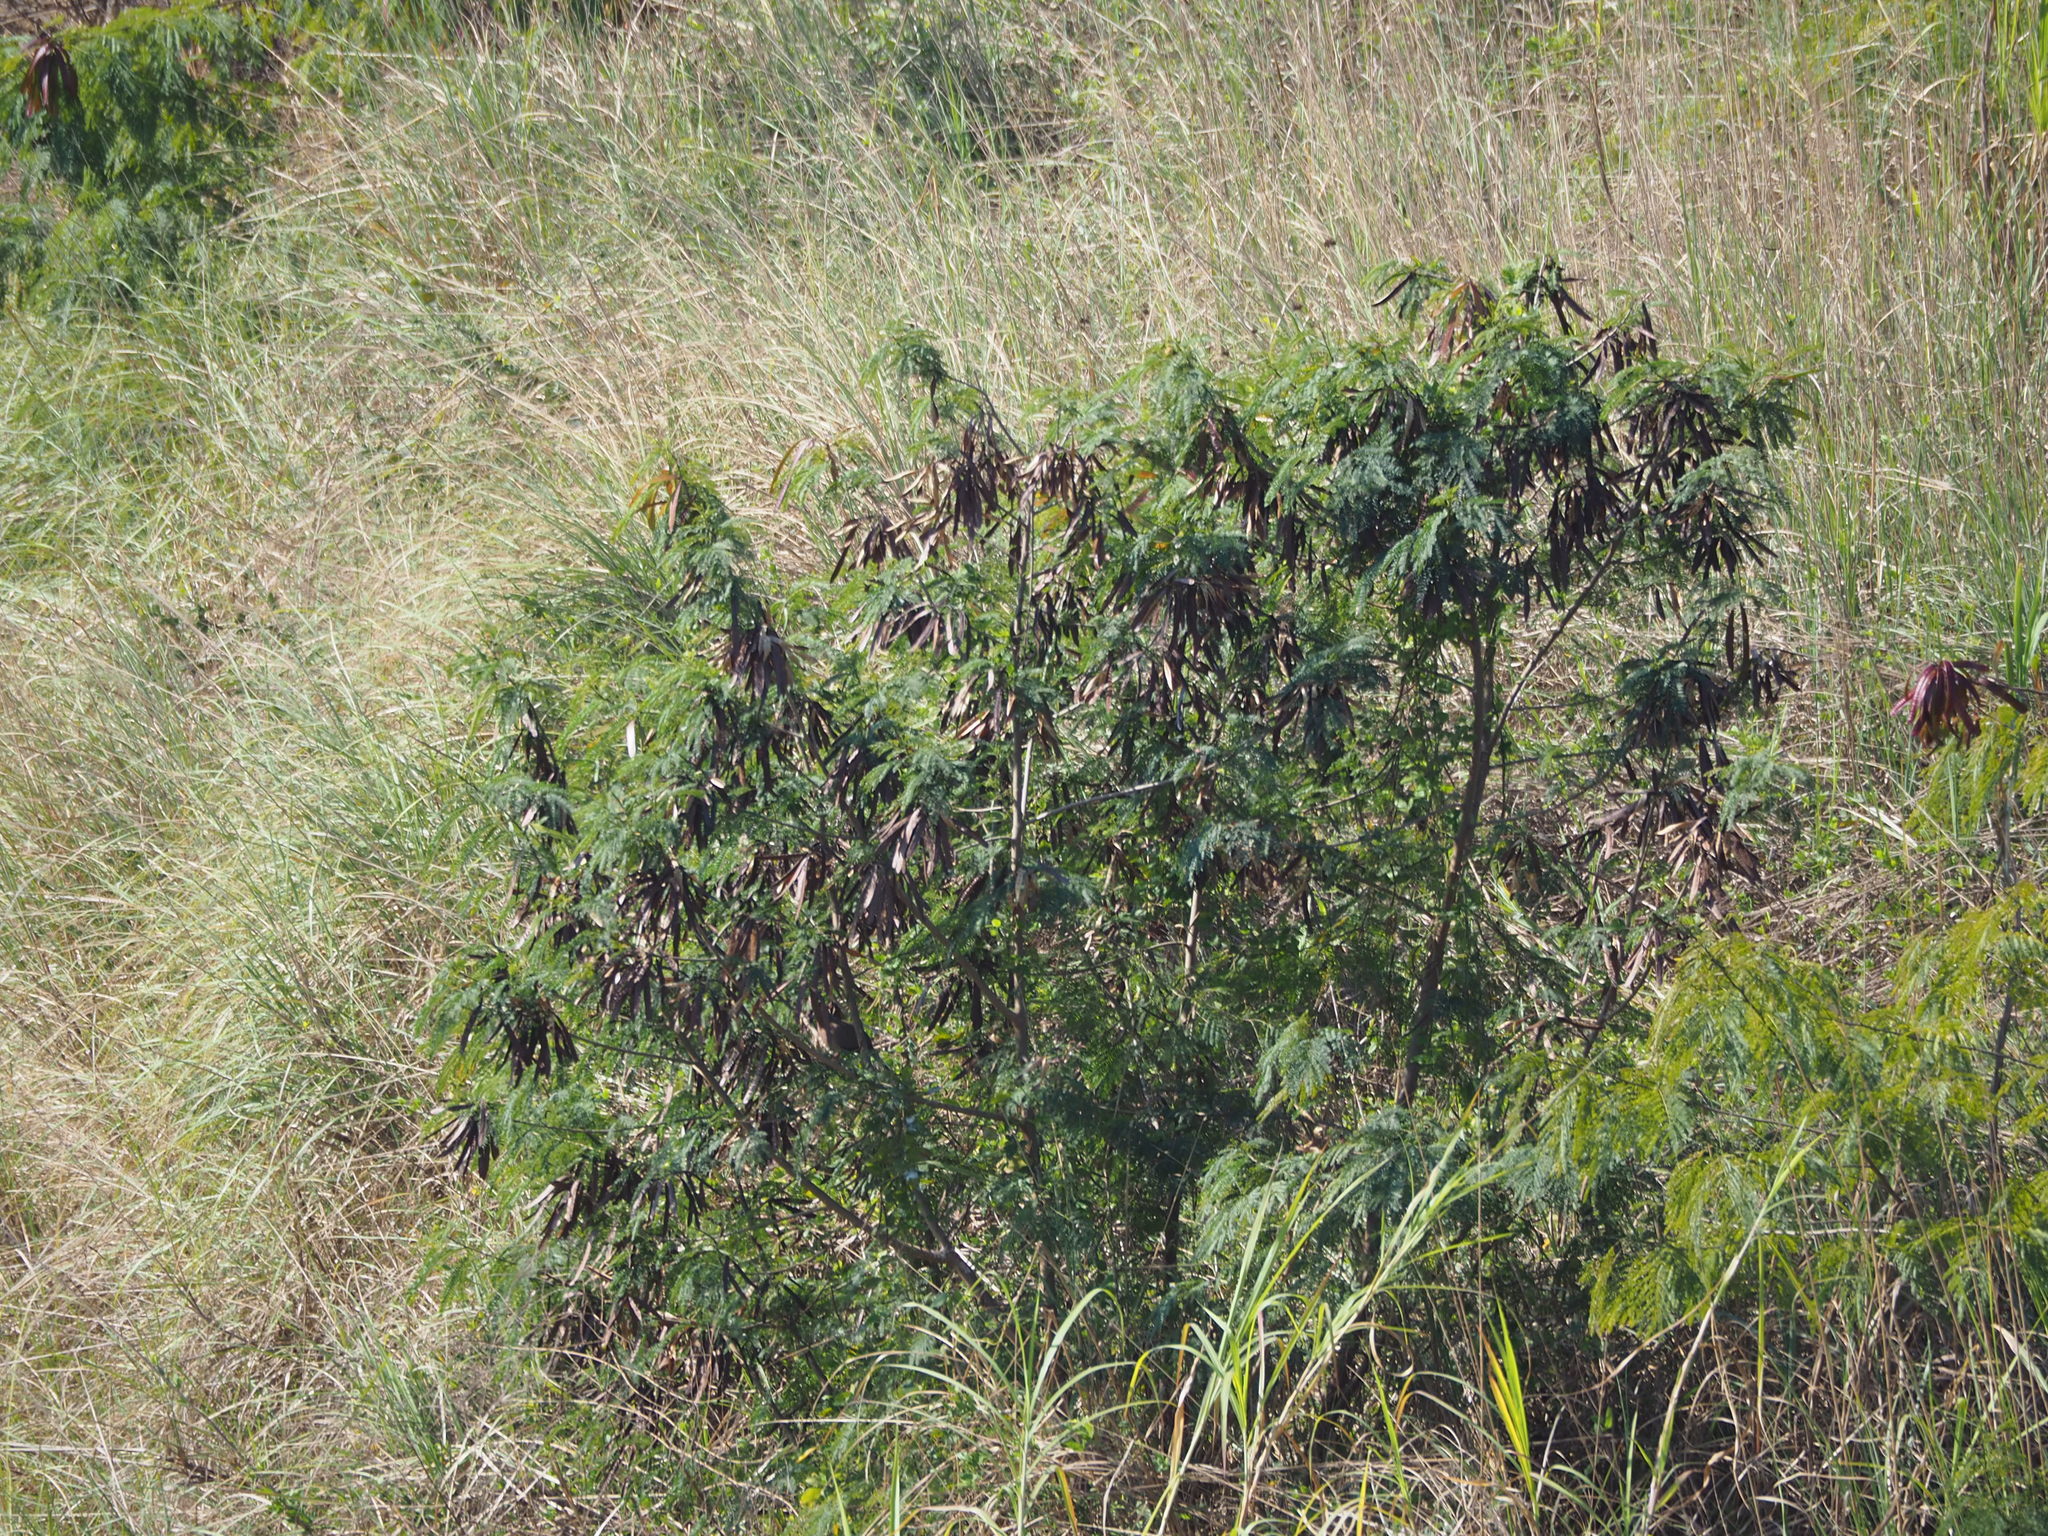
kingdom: Plantae
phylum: Tracheophyta
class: Magnoliopsida
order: Fabales
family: Fabaceae
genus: Leucaena
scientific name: Leucaena leucocephala
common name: White leadtree
